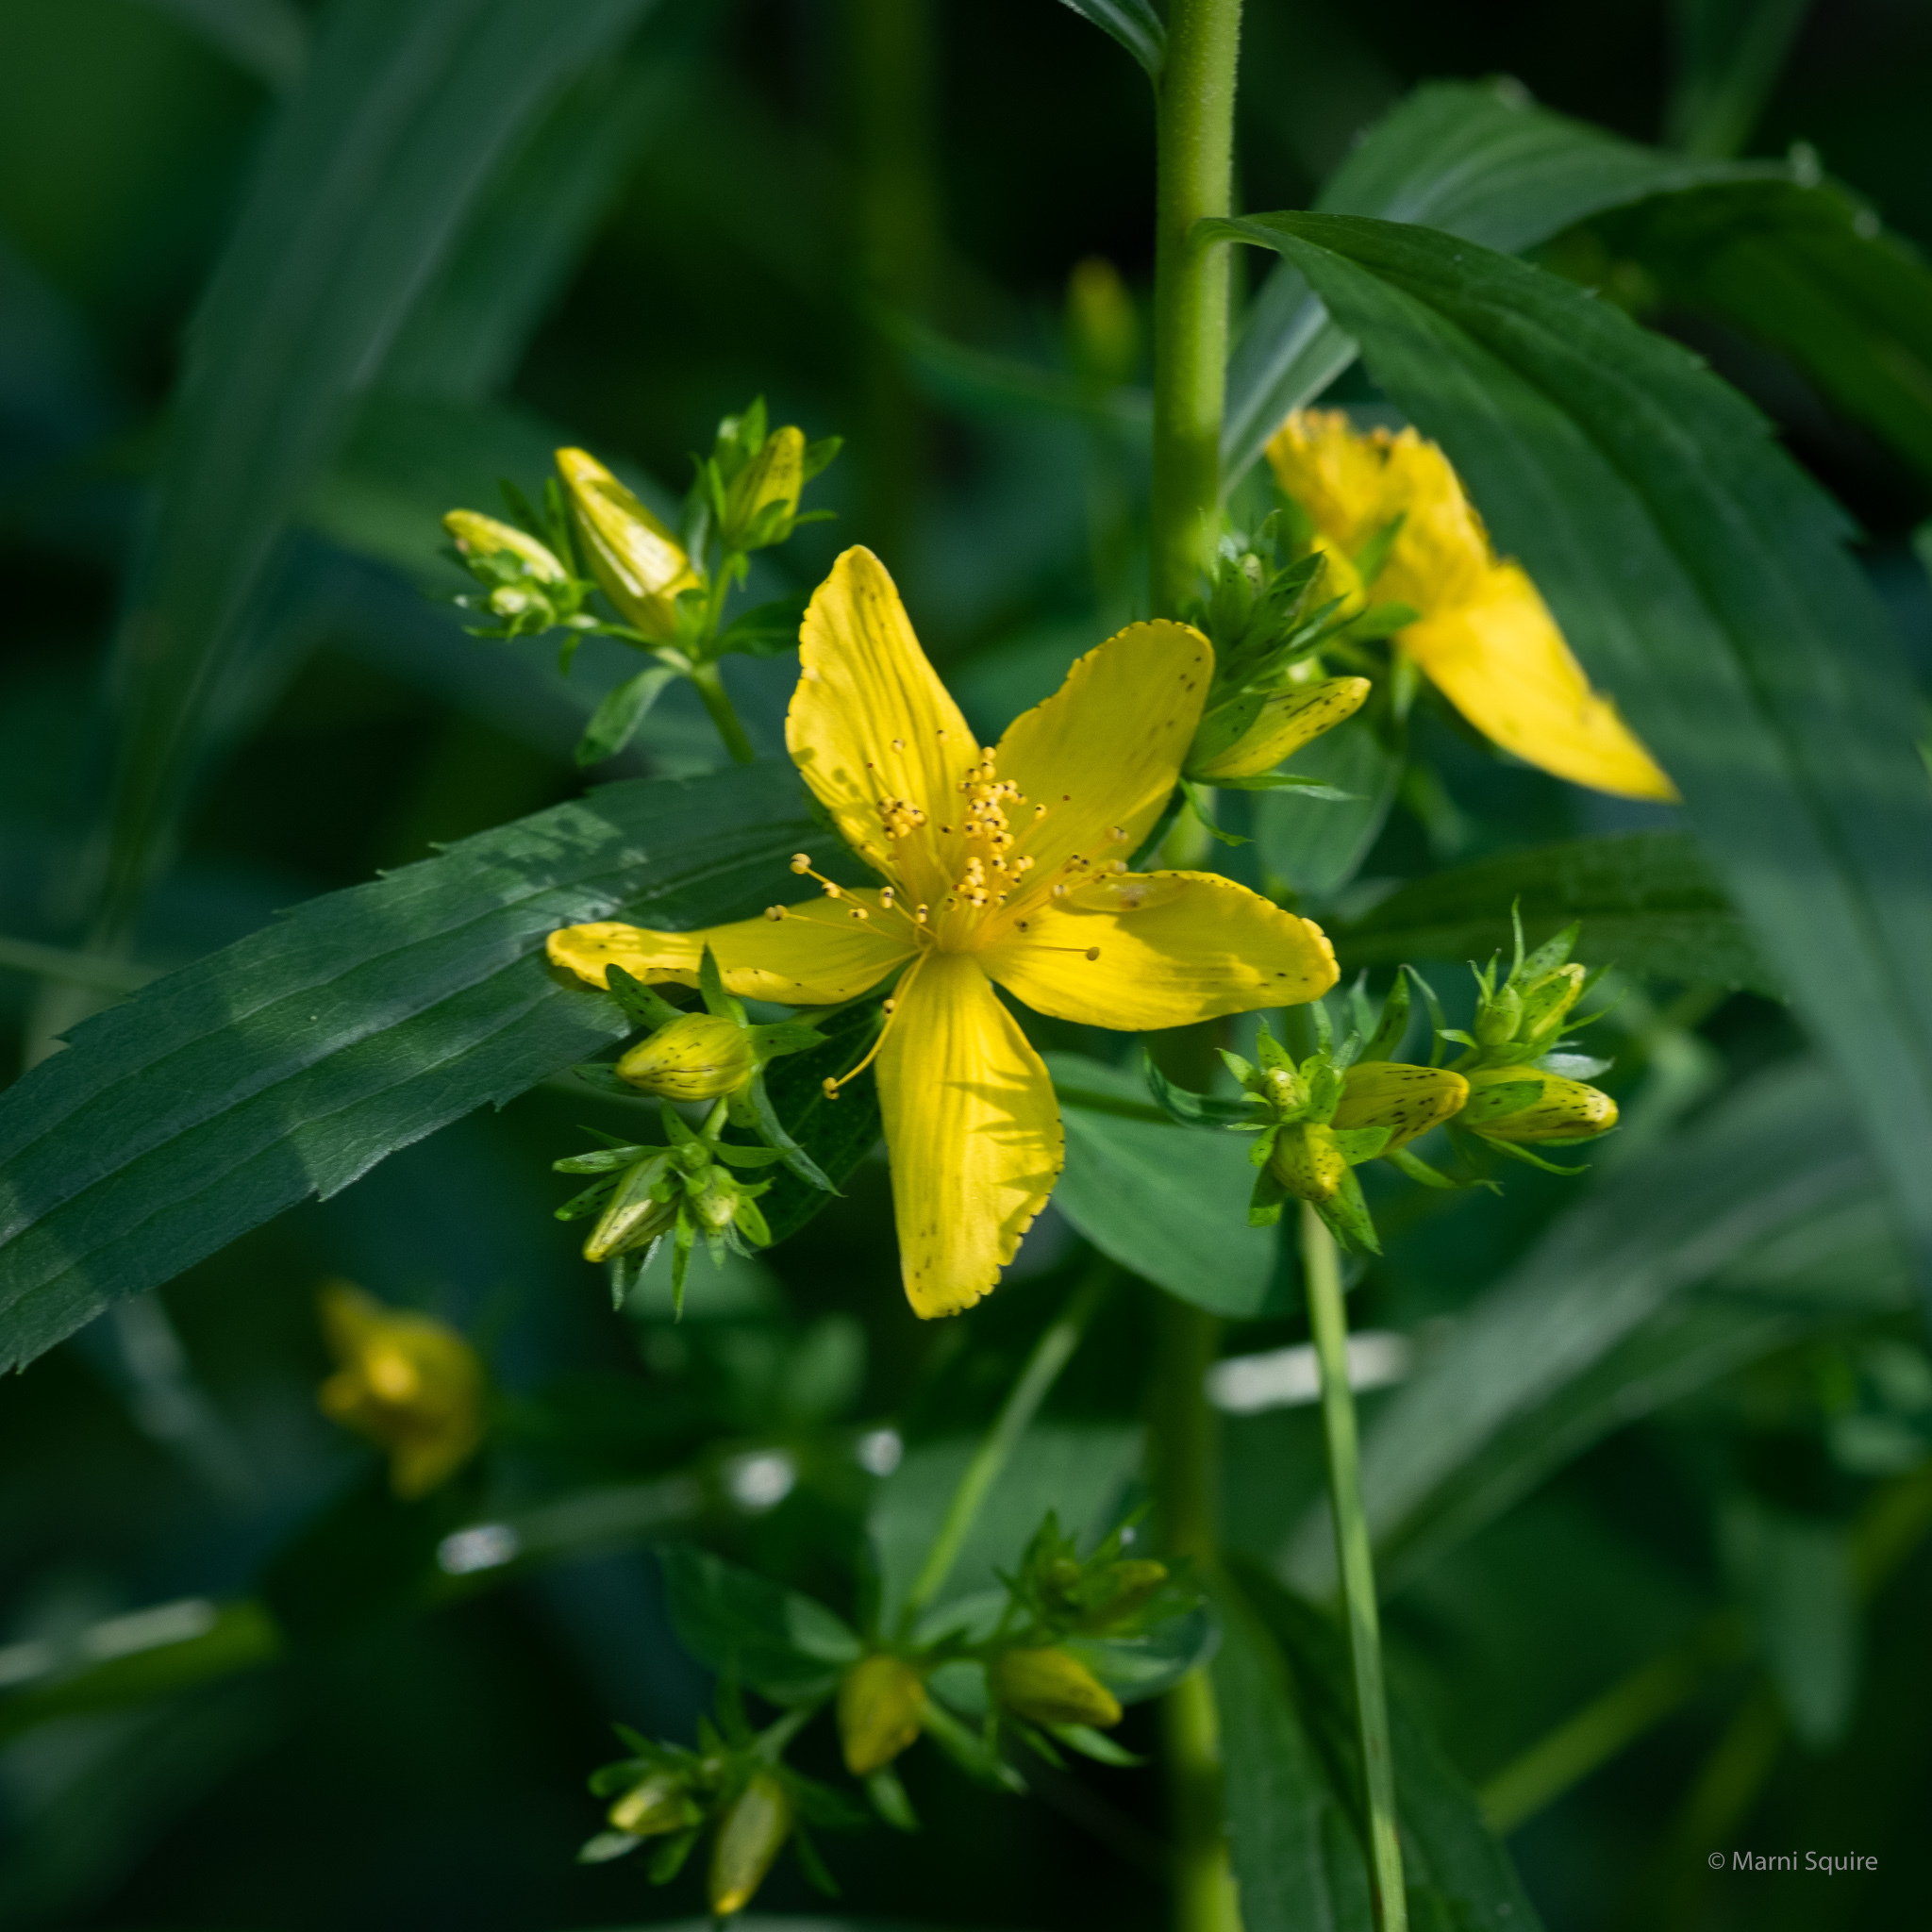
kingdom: Plantae
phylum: Tracheophyta
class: Magnoliopsida
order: Malpighiales
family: Hypericaceae
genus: Hypericum
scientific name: Hypericum perforatum
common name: Common st. johnswort
